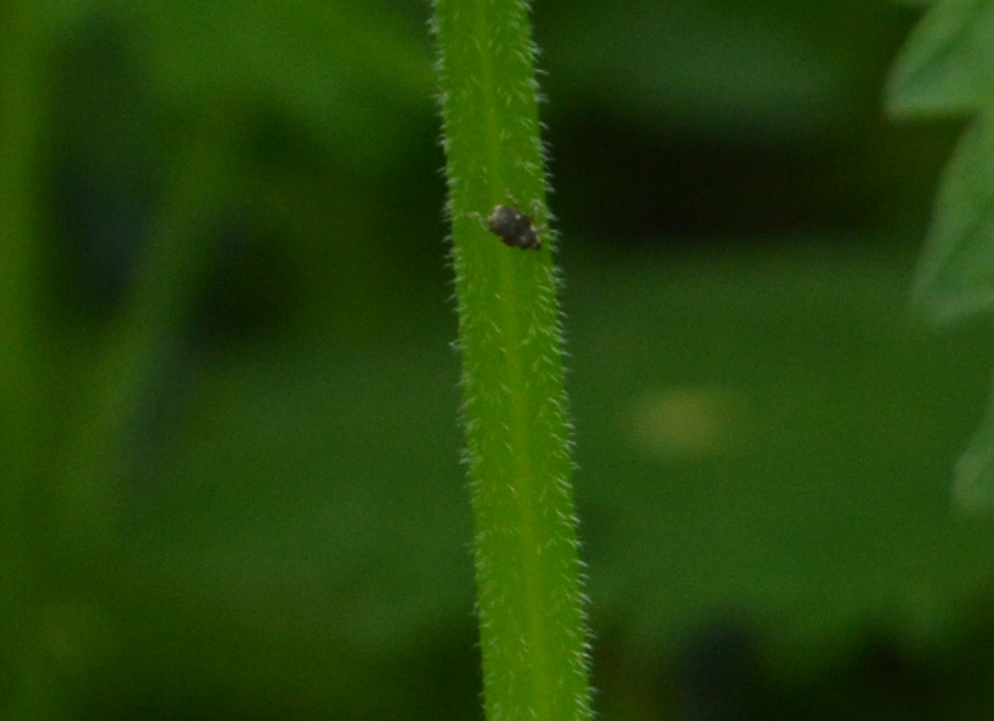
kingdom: Animalia
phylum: Arthropoda
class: Insecta
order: Coleoptera
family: Curculionidae
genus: Nedyus
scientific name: Nedyus quadrimaculatus
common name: Small nettle weevil
